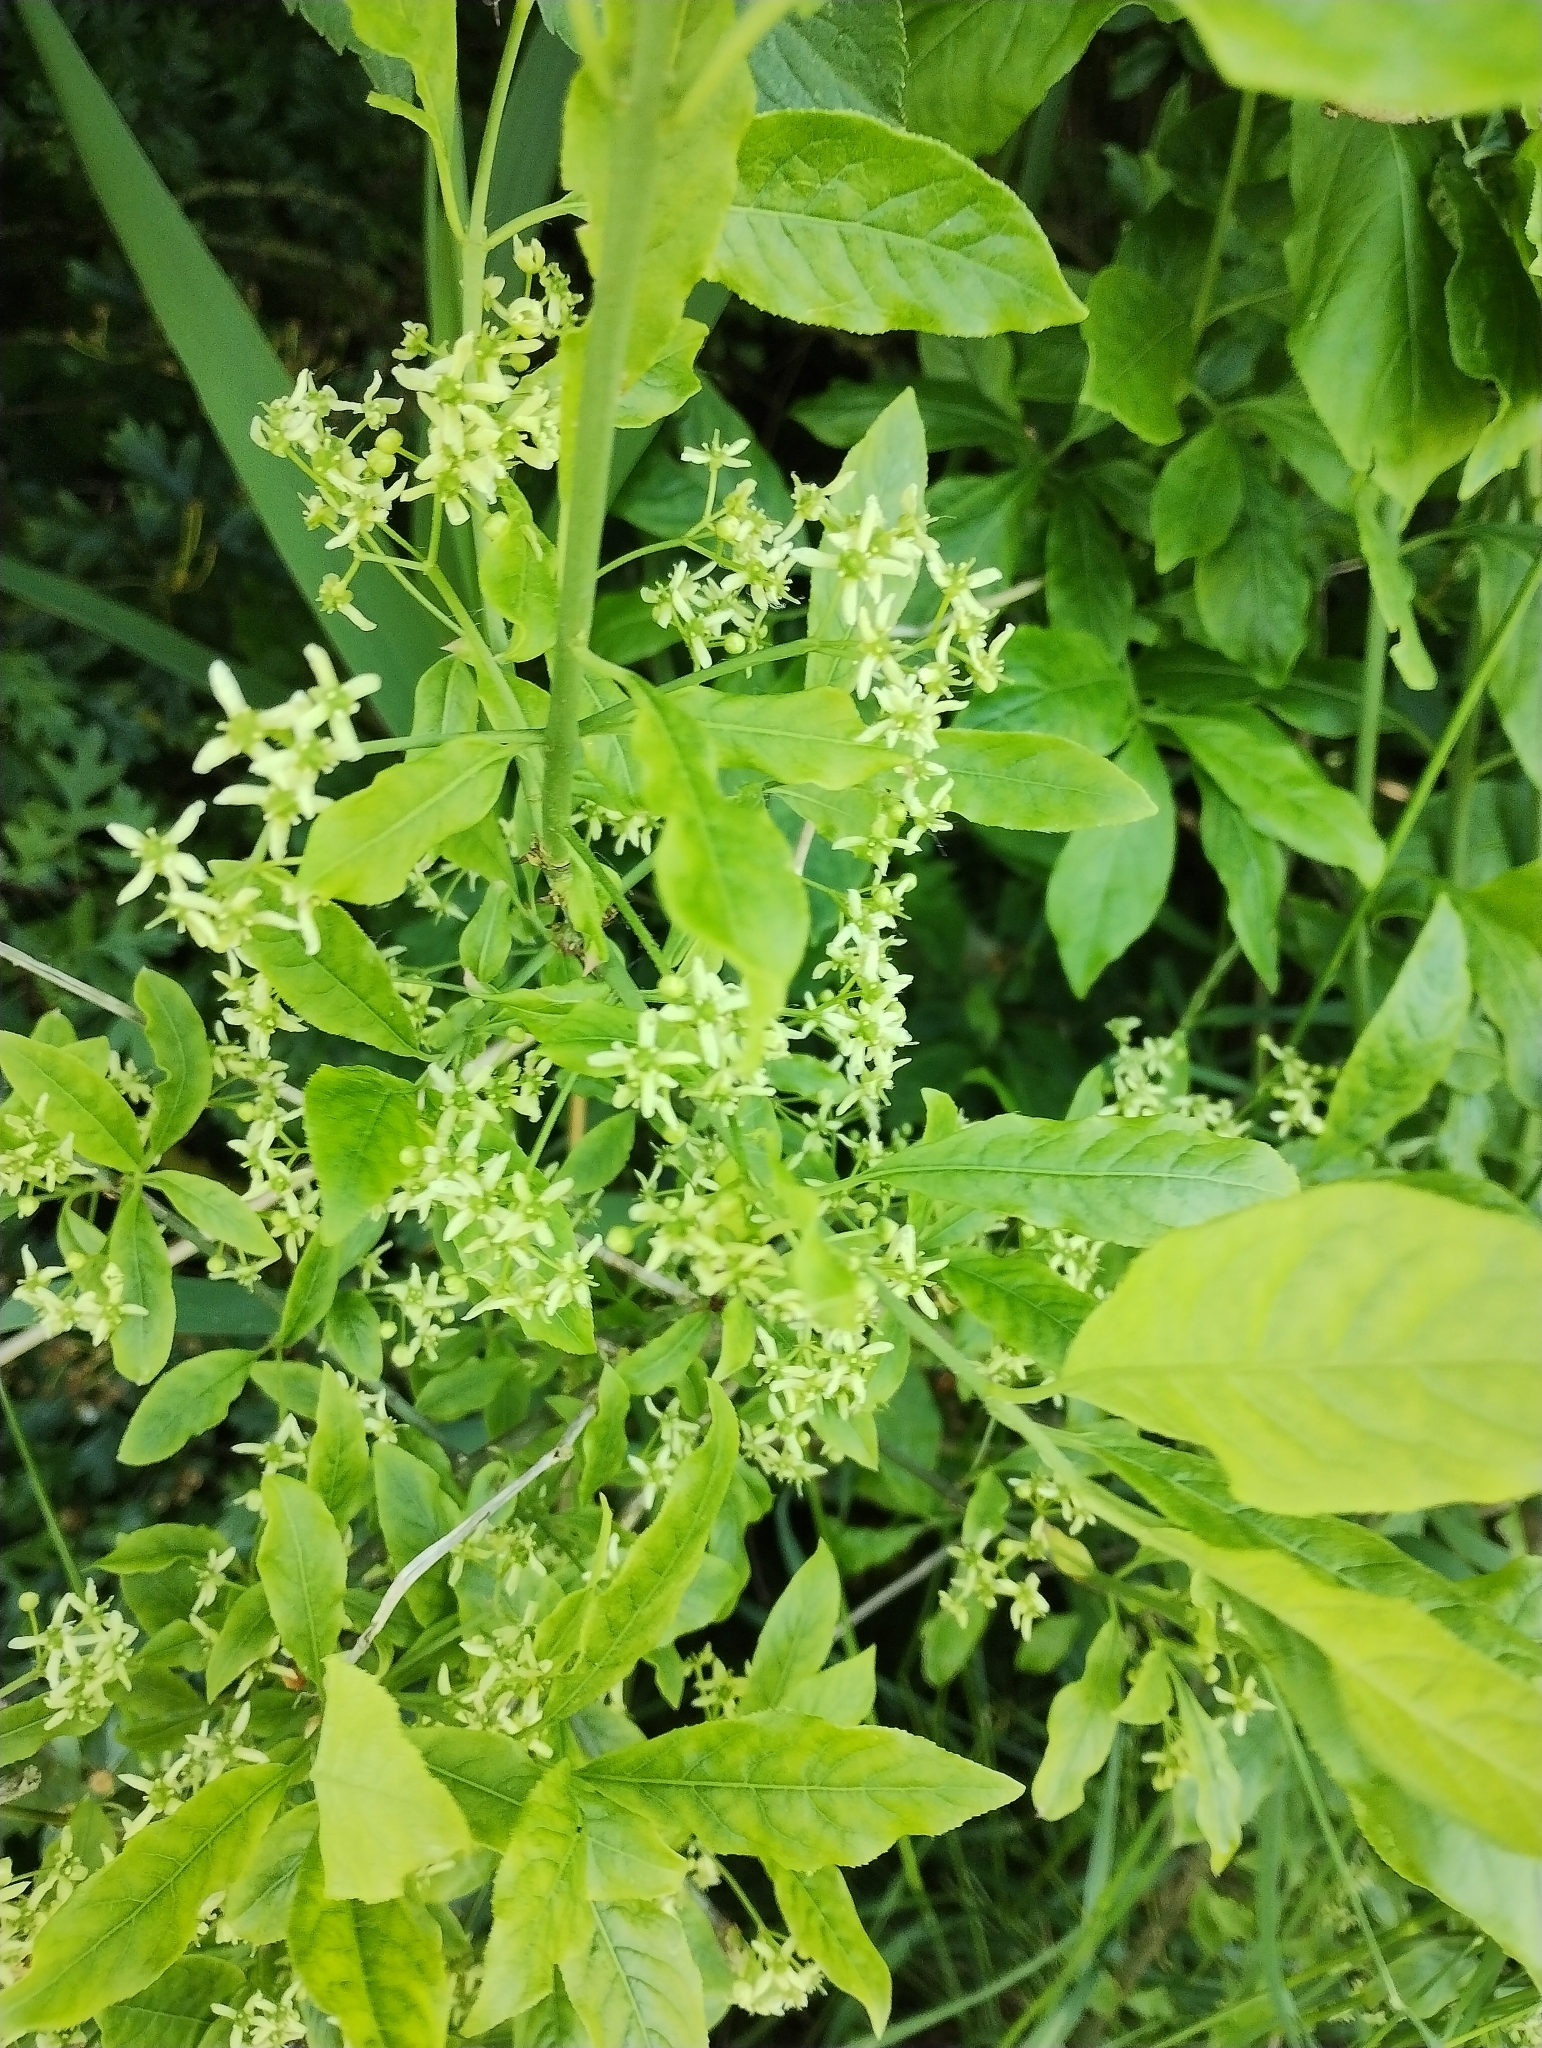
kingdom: Plantae
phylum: Tracheophyta
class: Magnoliopsida
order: Celastrales
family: Celastraceae
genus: Euonymus
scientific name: Euonymus europaeus
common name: Spindle
